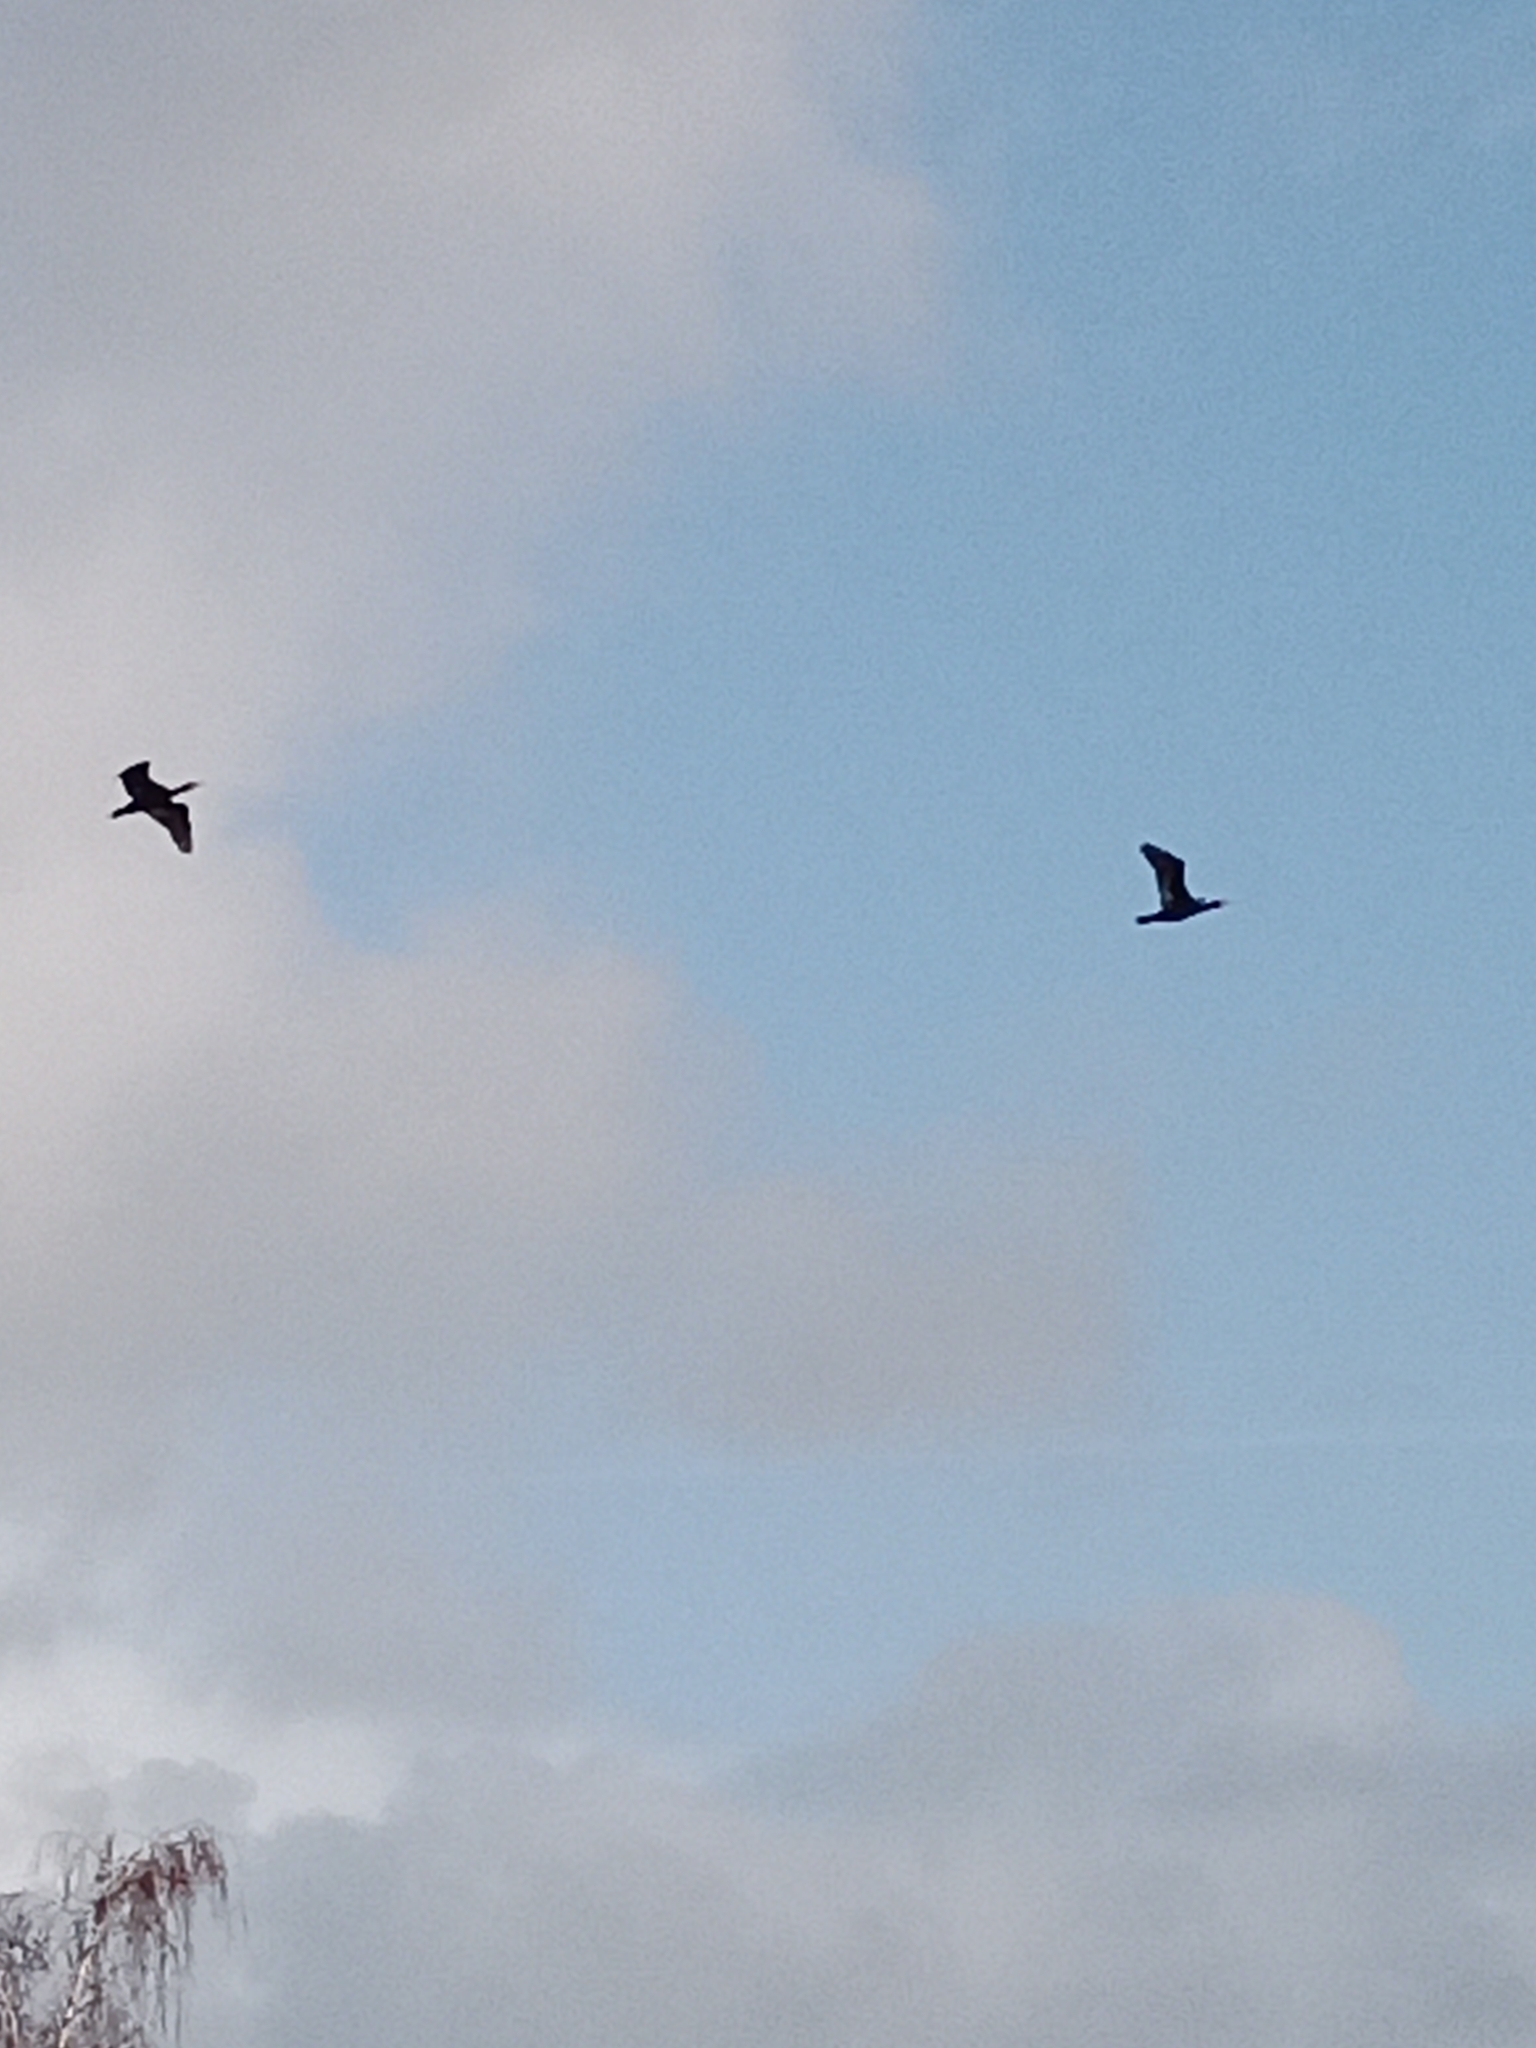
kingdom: Animalia
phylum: Chordata
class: Aves
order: Suliformes
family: Phalacrocoracidae
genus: Phalacrocorax
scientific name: Phalacrocorax carbo
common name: Great cormorant
